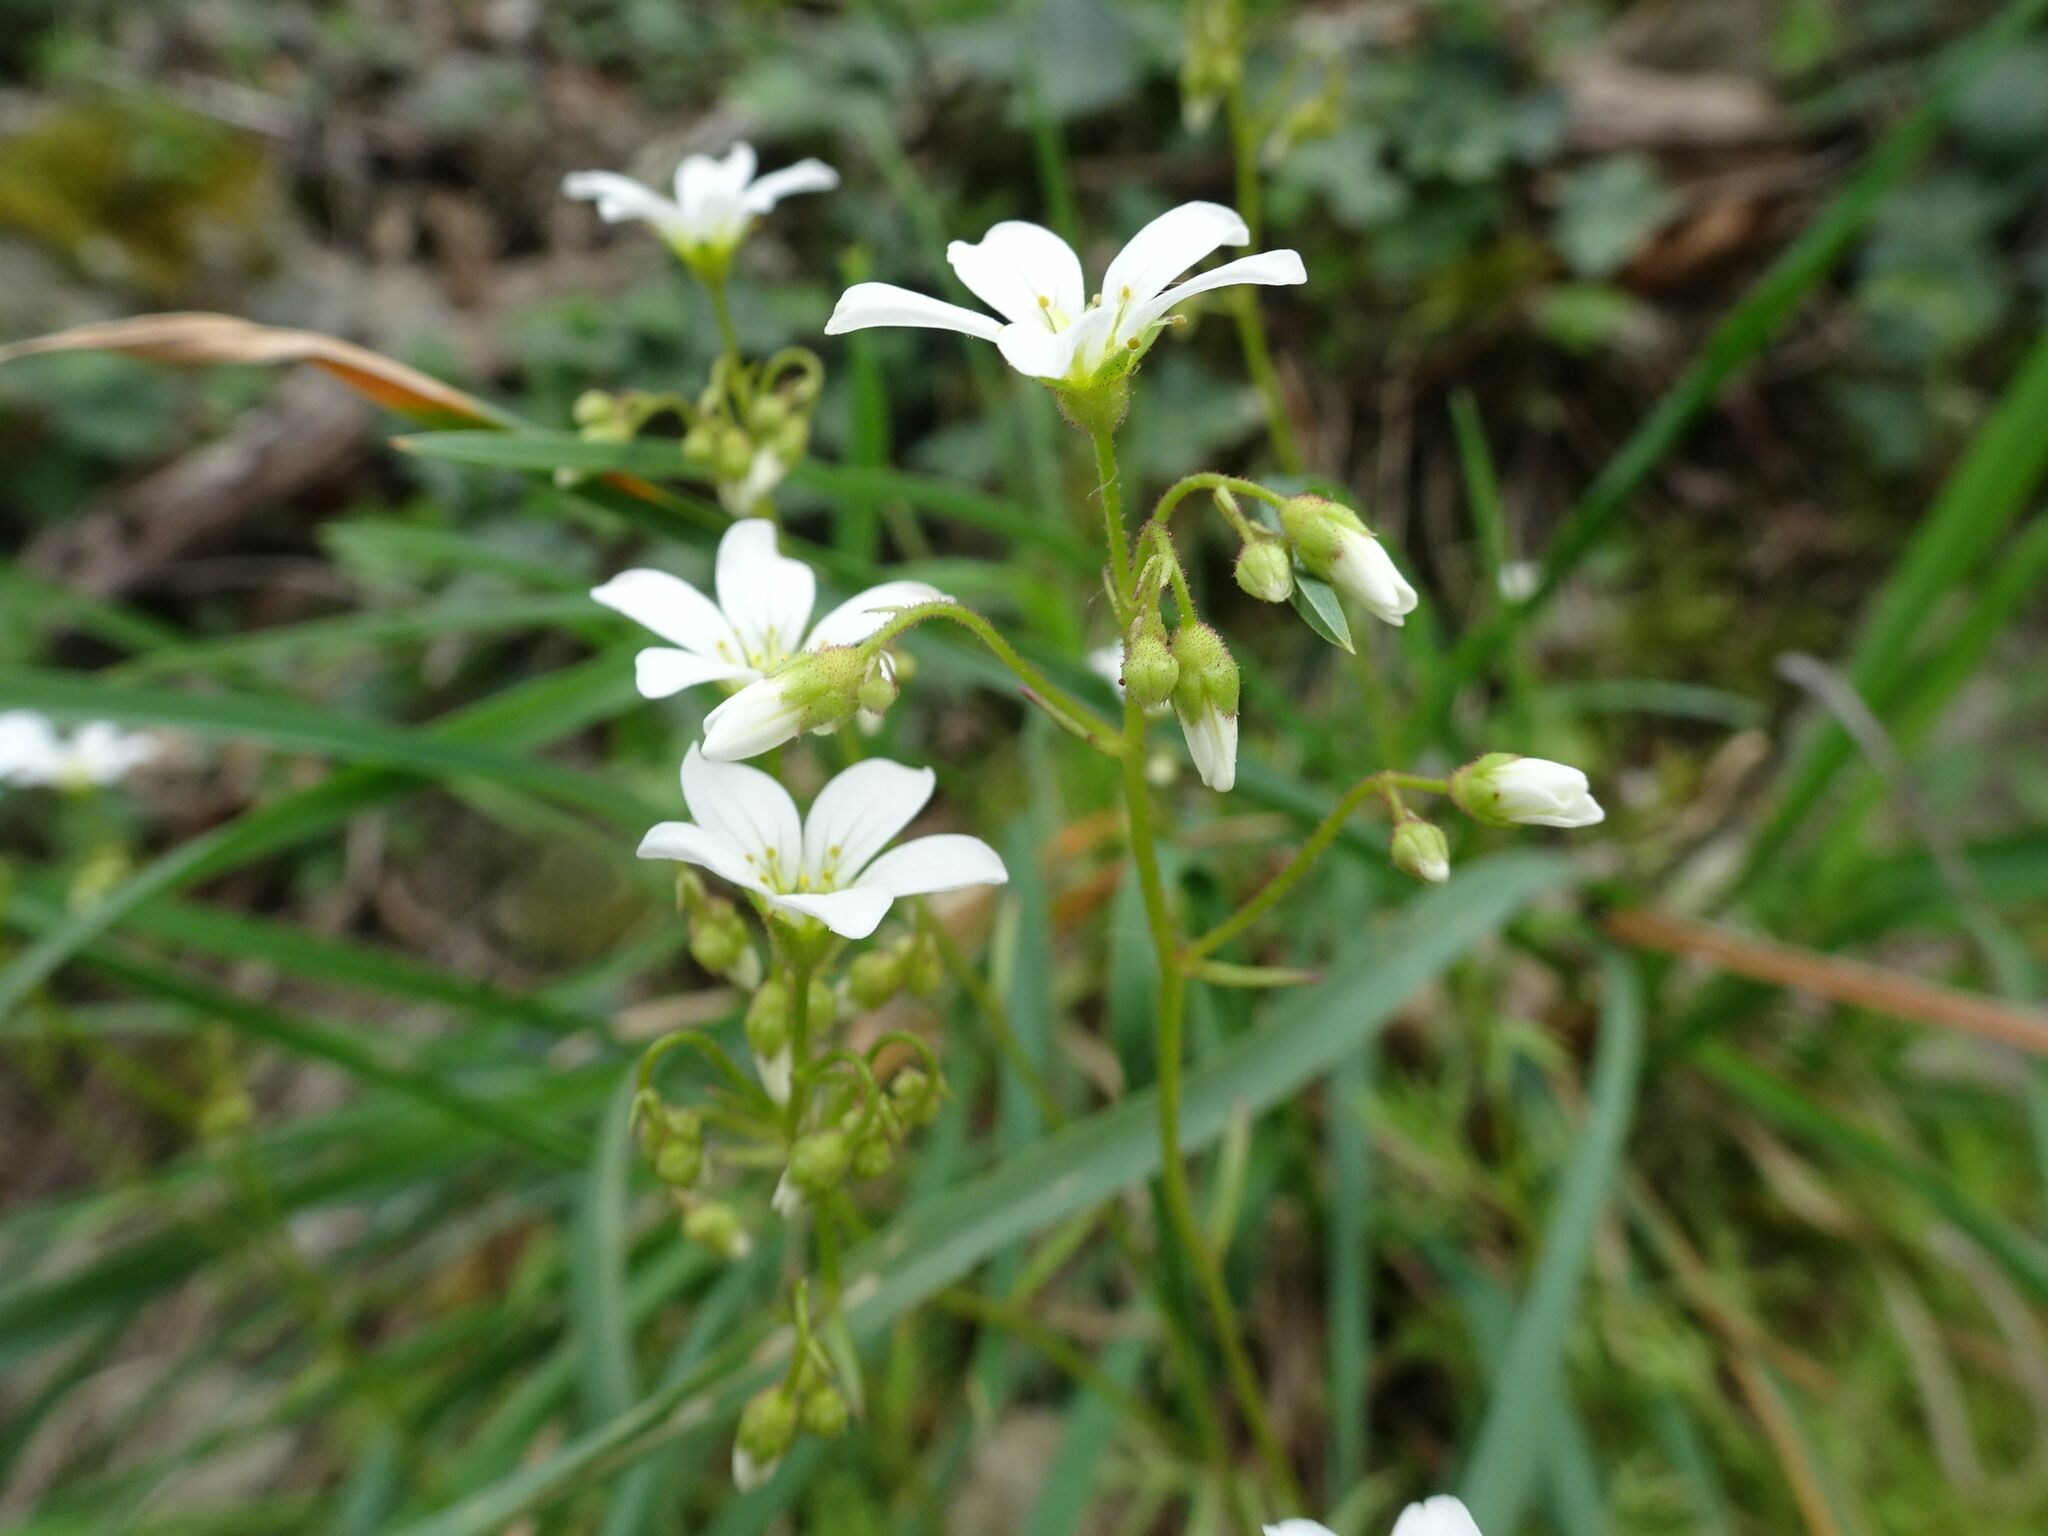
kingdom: Plantae
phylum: Tracheophyta
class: Magnoliopsida
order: Saxifragales
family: Saxifragaceae
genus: Saxifraga
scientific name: Saxifraga fragosoi
